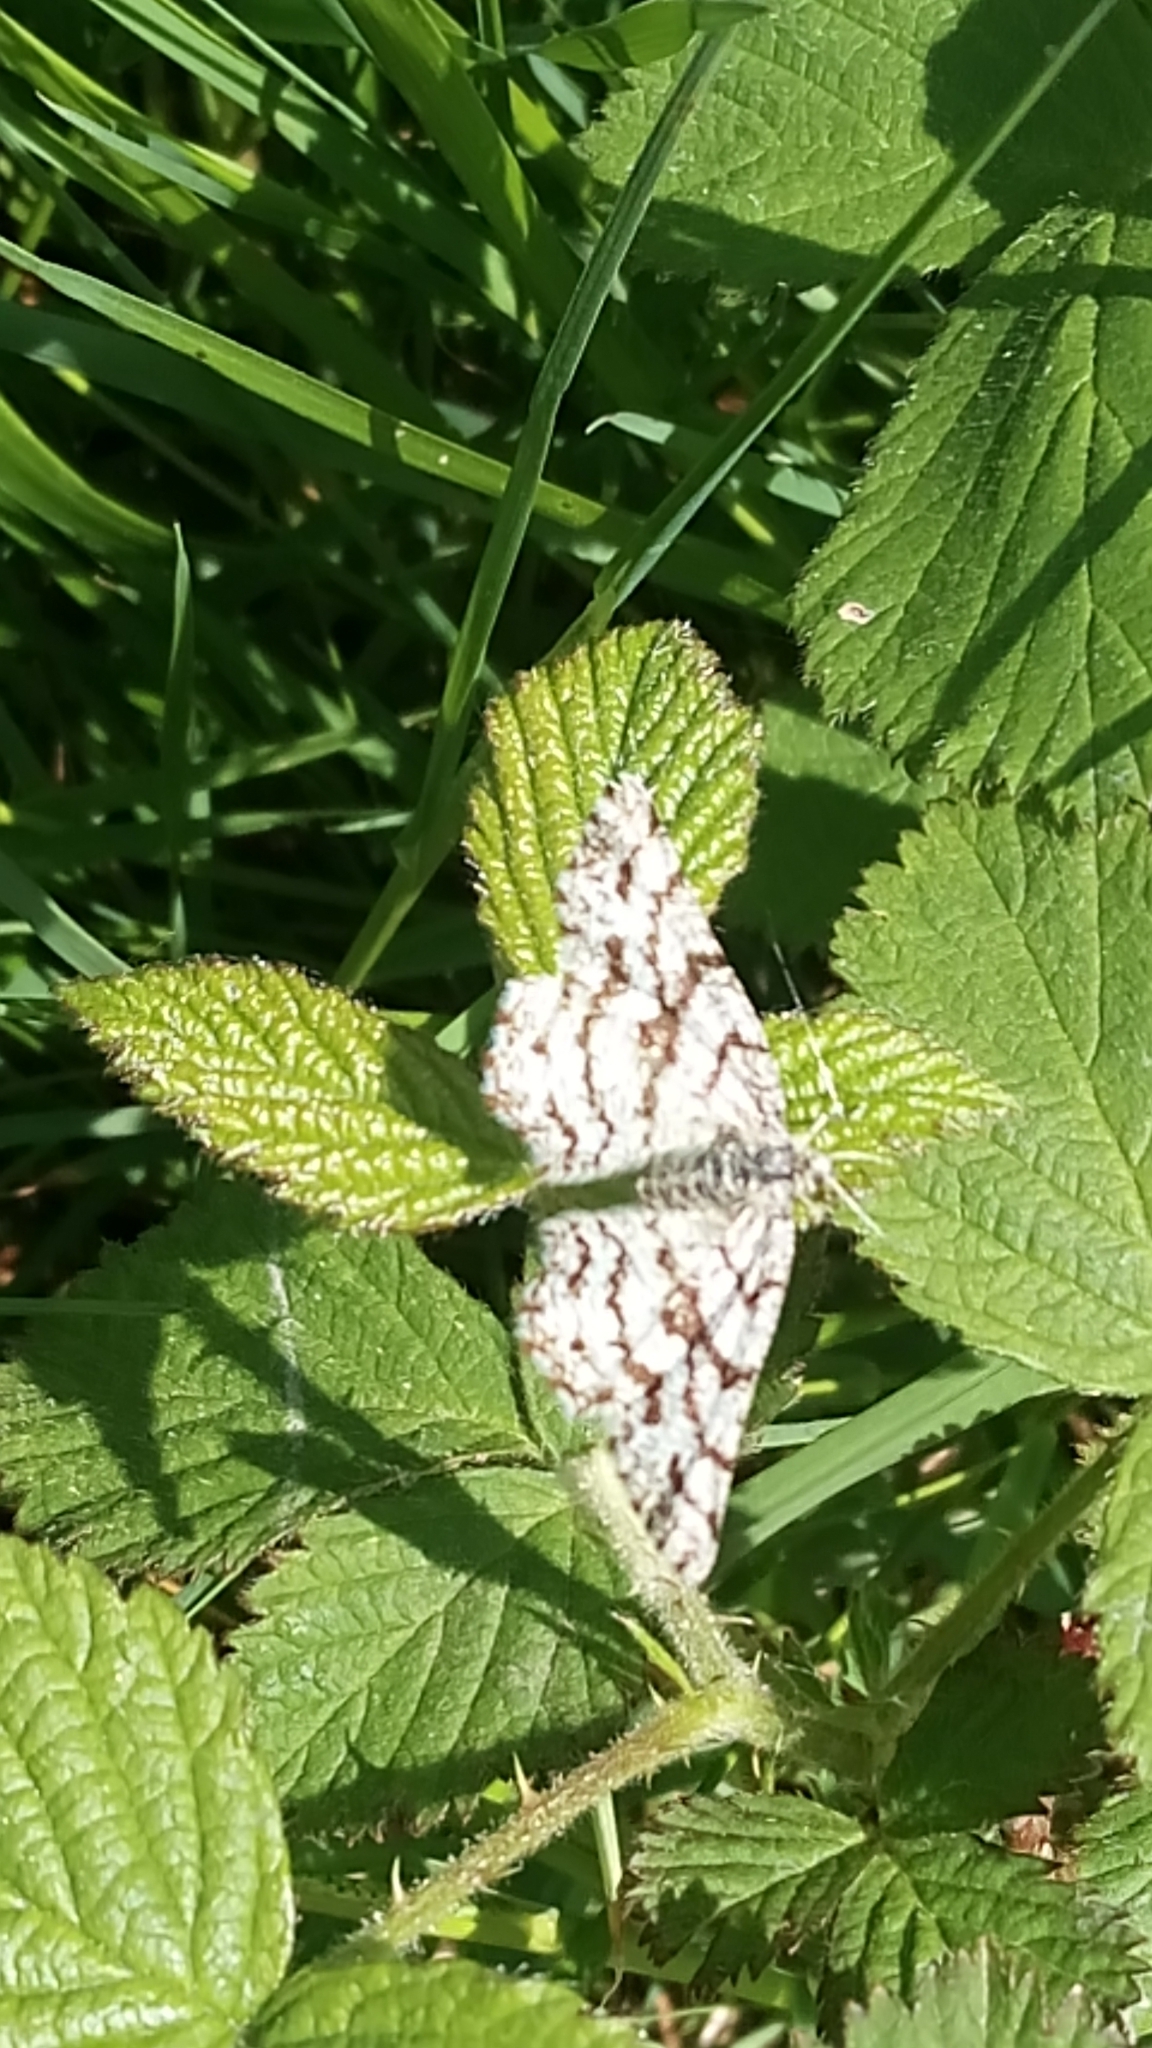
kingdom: Animalia
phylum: Arthropoda
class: Insecta
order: Lepidoptera
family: Geometridae
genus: Ematurga
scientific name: Ematurga atomaria
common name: Common heath
